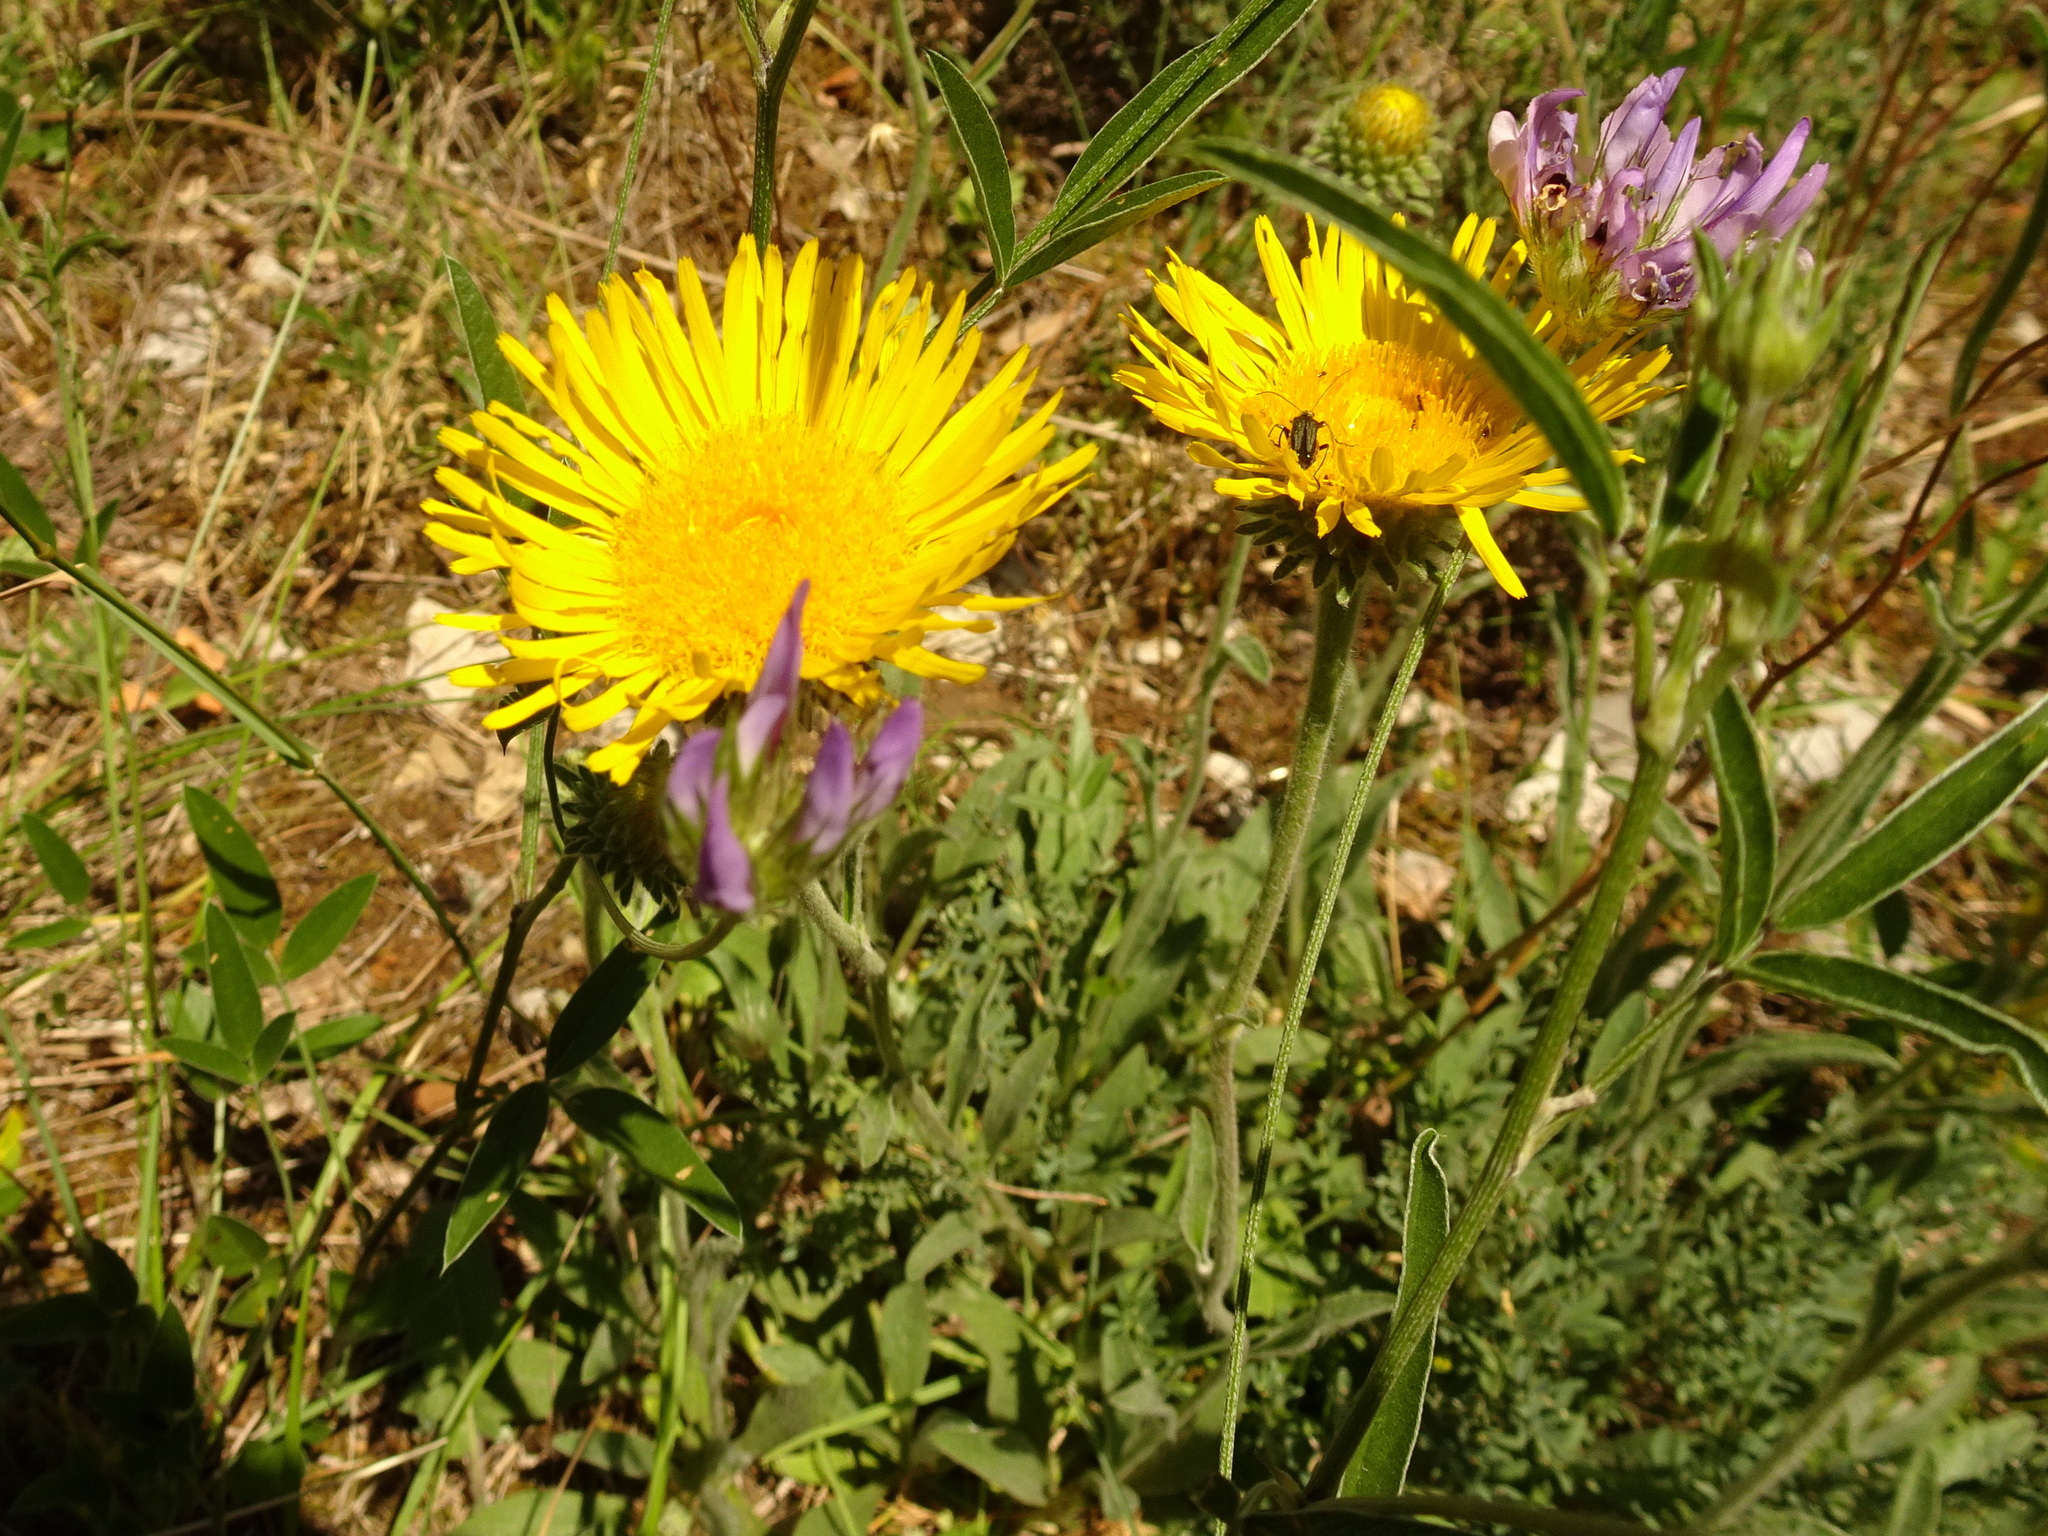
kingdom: Plantae
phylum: Tracheophyta
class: Magnoliopsida
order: Asterales
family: Asteraceae
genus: Pentanema
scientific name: Pentanema montanum
